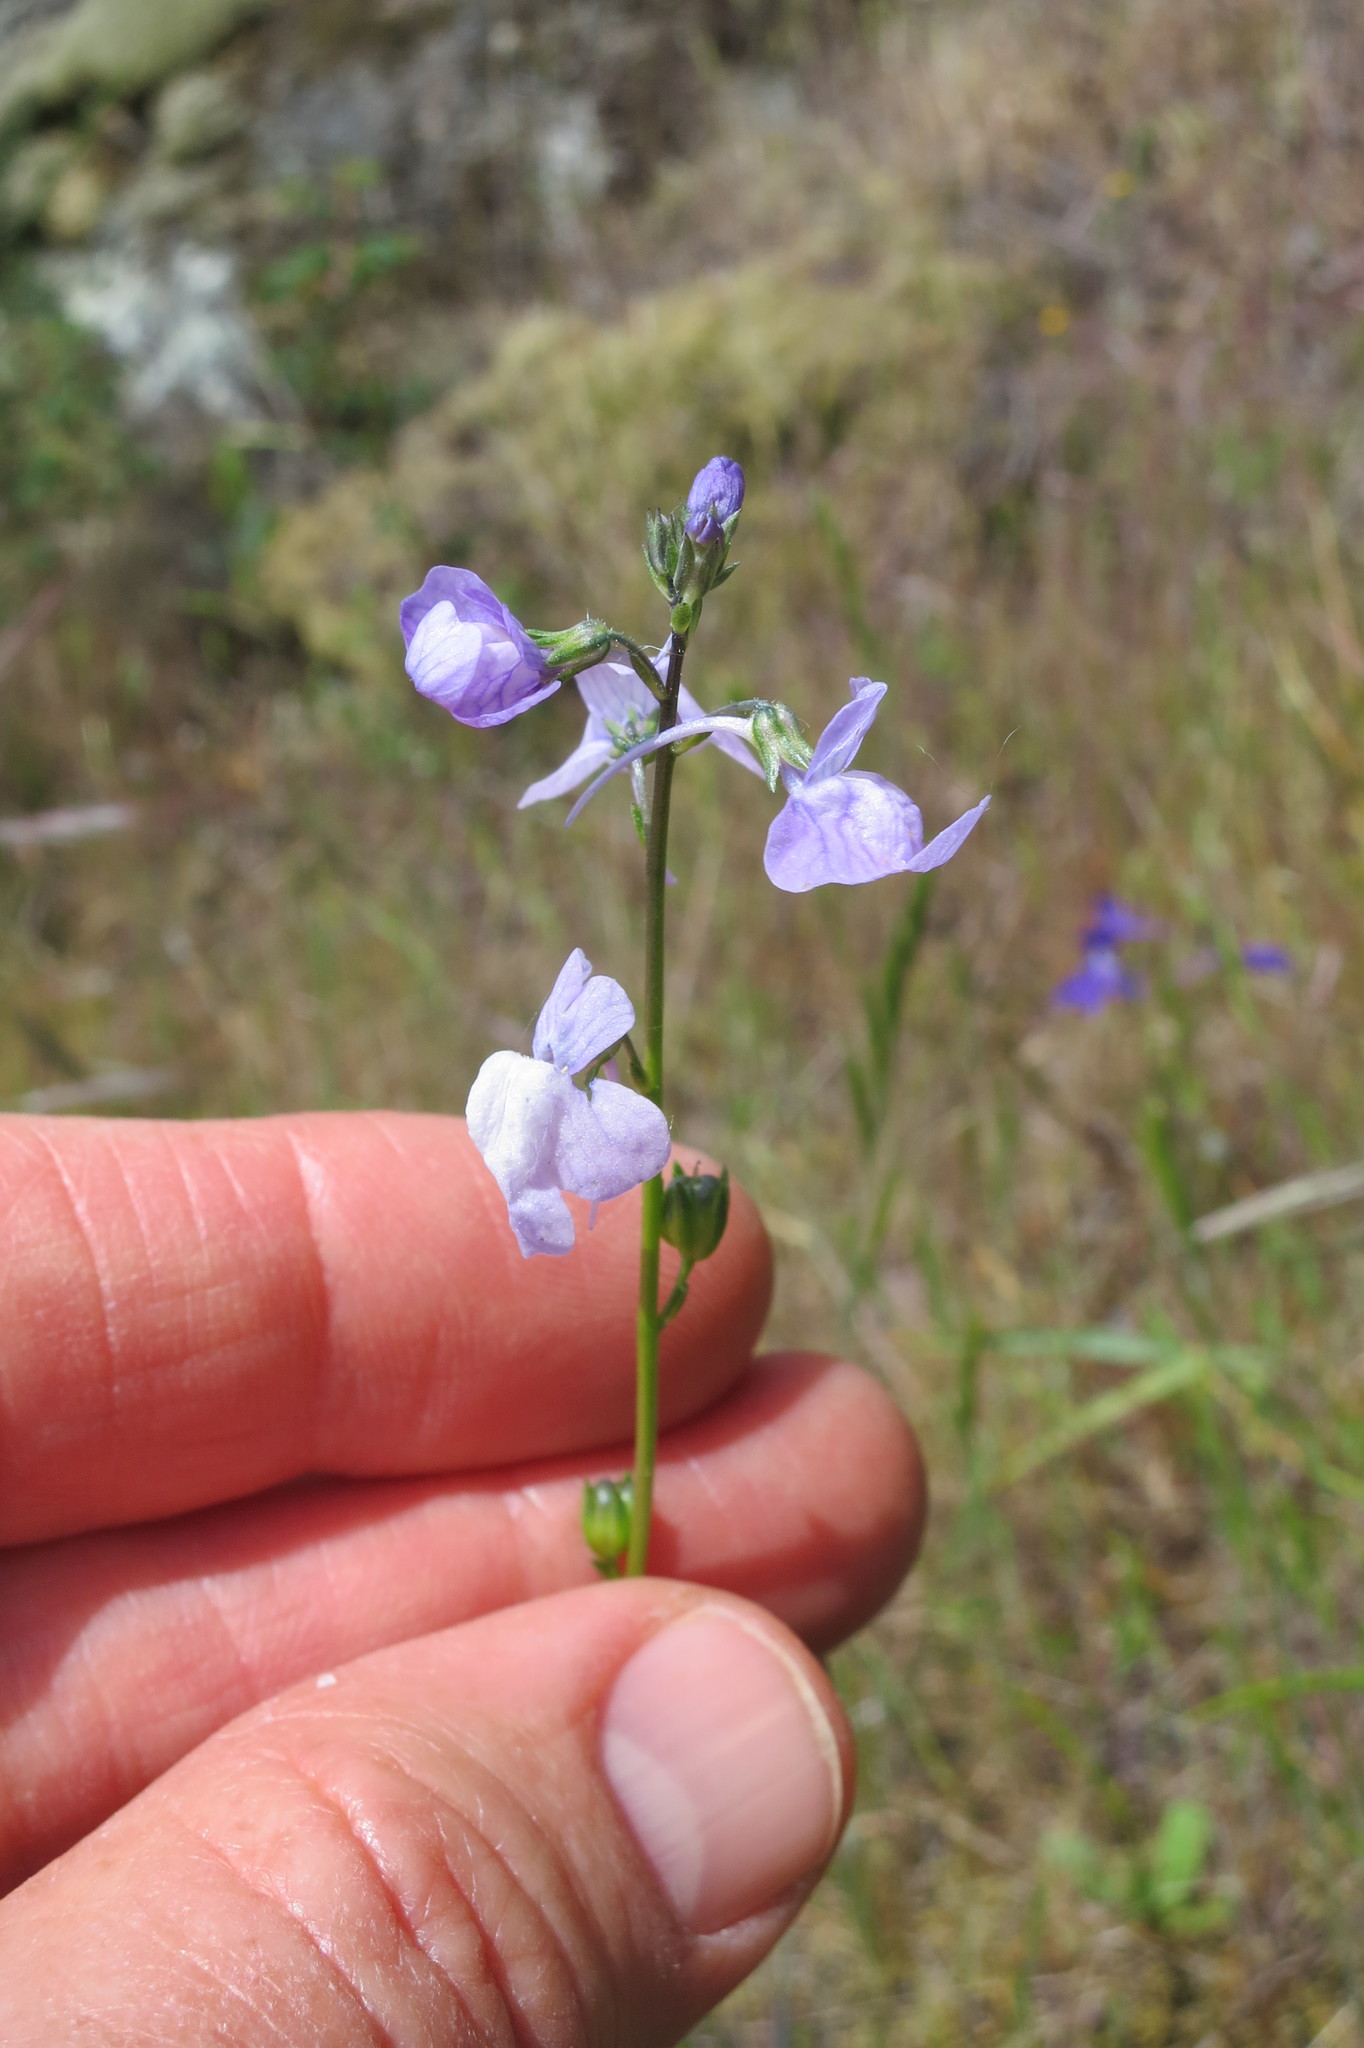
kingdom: Plantae
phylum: Tracheophyta
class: Magnoliopsida
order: Lamiales
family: Plantaginaceae
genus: Nuttallanthus
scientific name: Nuttallanthus texanus
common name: Texas toadflax
